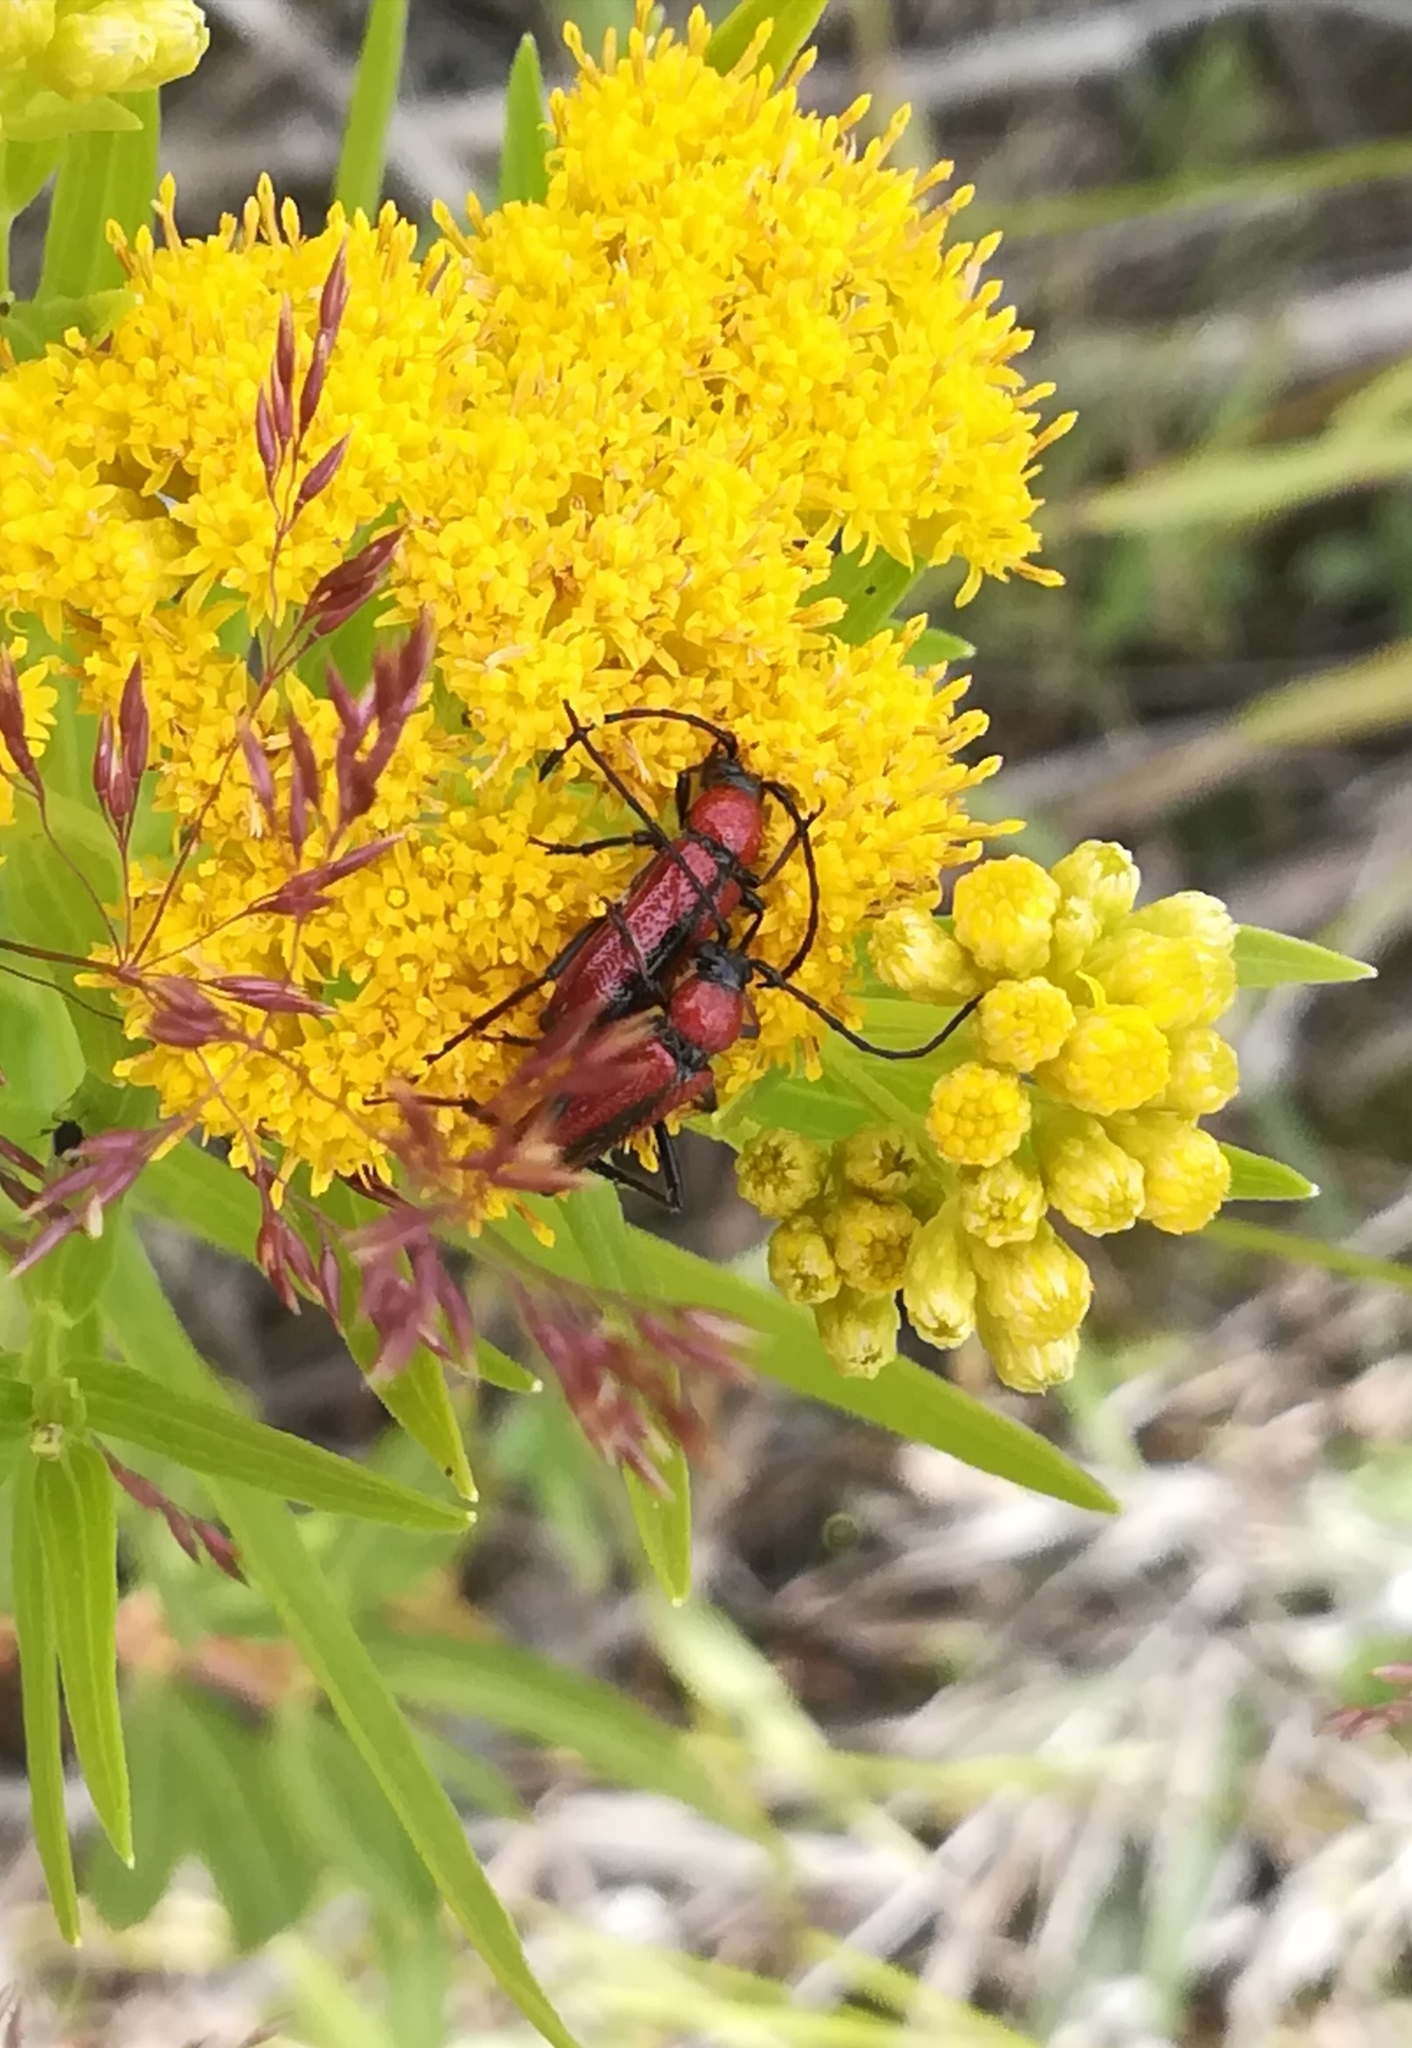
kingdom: Animalia
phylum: Arthropoda
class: Insecta
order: Coleoptera
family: Cerambycidae
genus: Batyle
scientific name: Batyle suturalis
